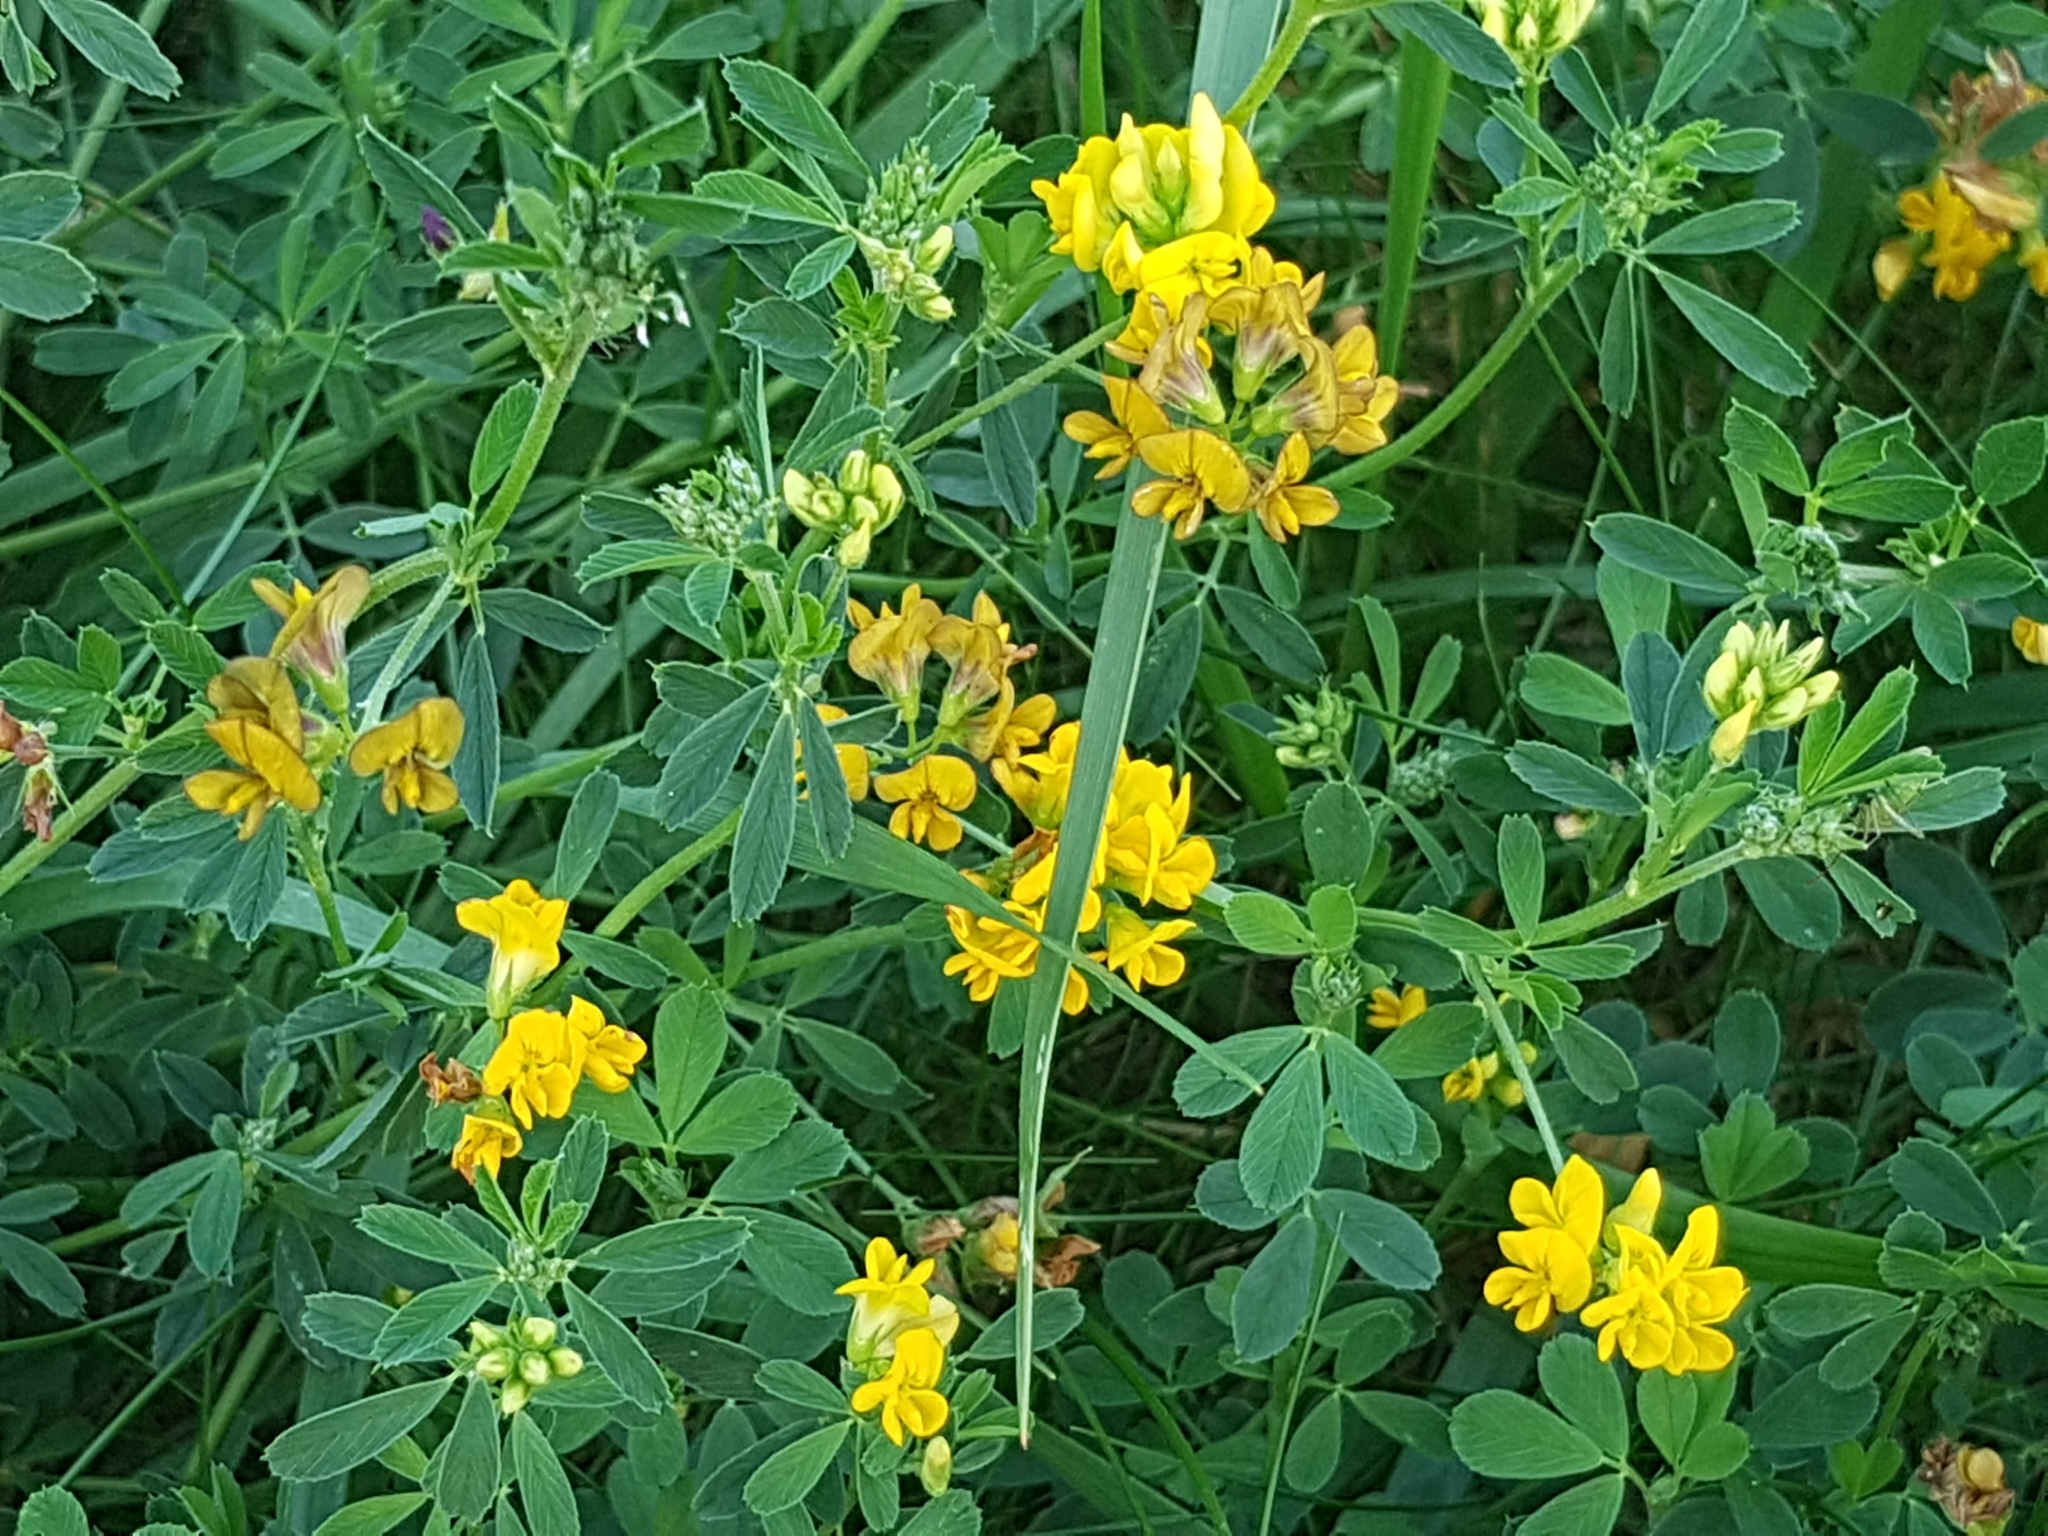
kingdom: Plantae
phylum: Tracheophyta
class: Magnoliopsida
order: Fabales
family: Fabaceae
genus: Medicago
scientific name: Medicago falcata
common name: Sickle medick
